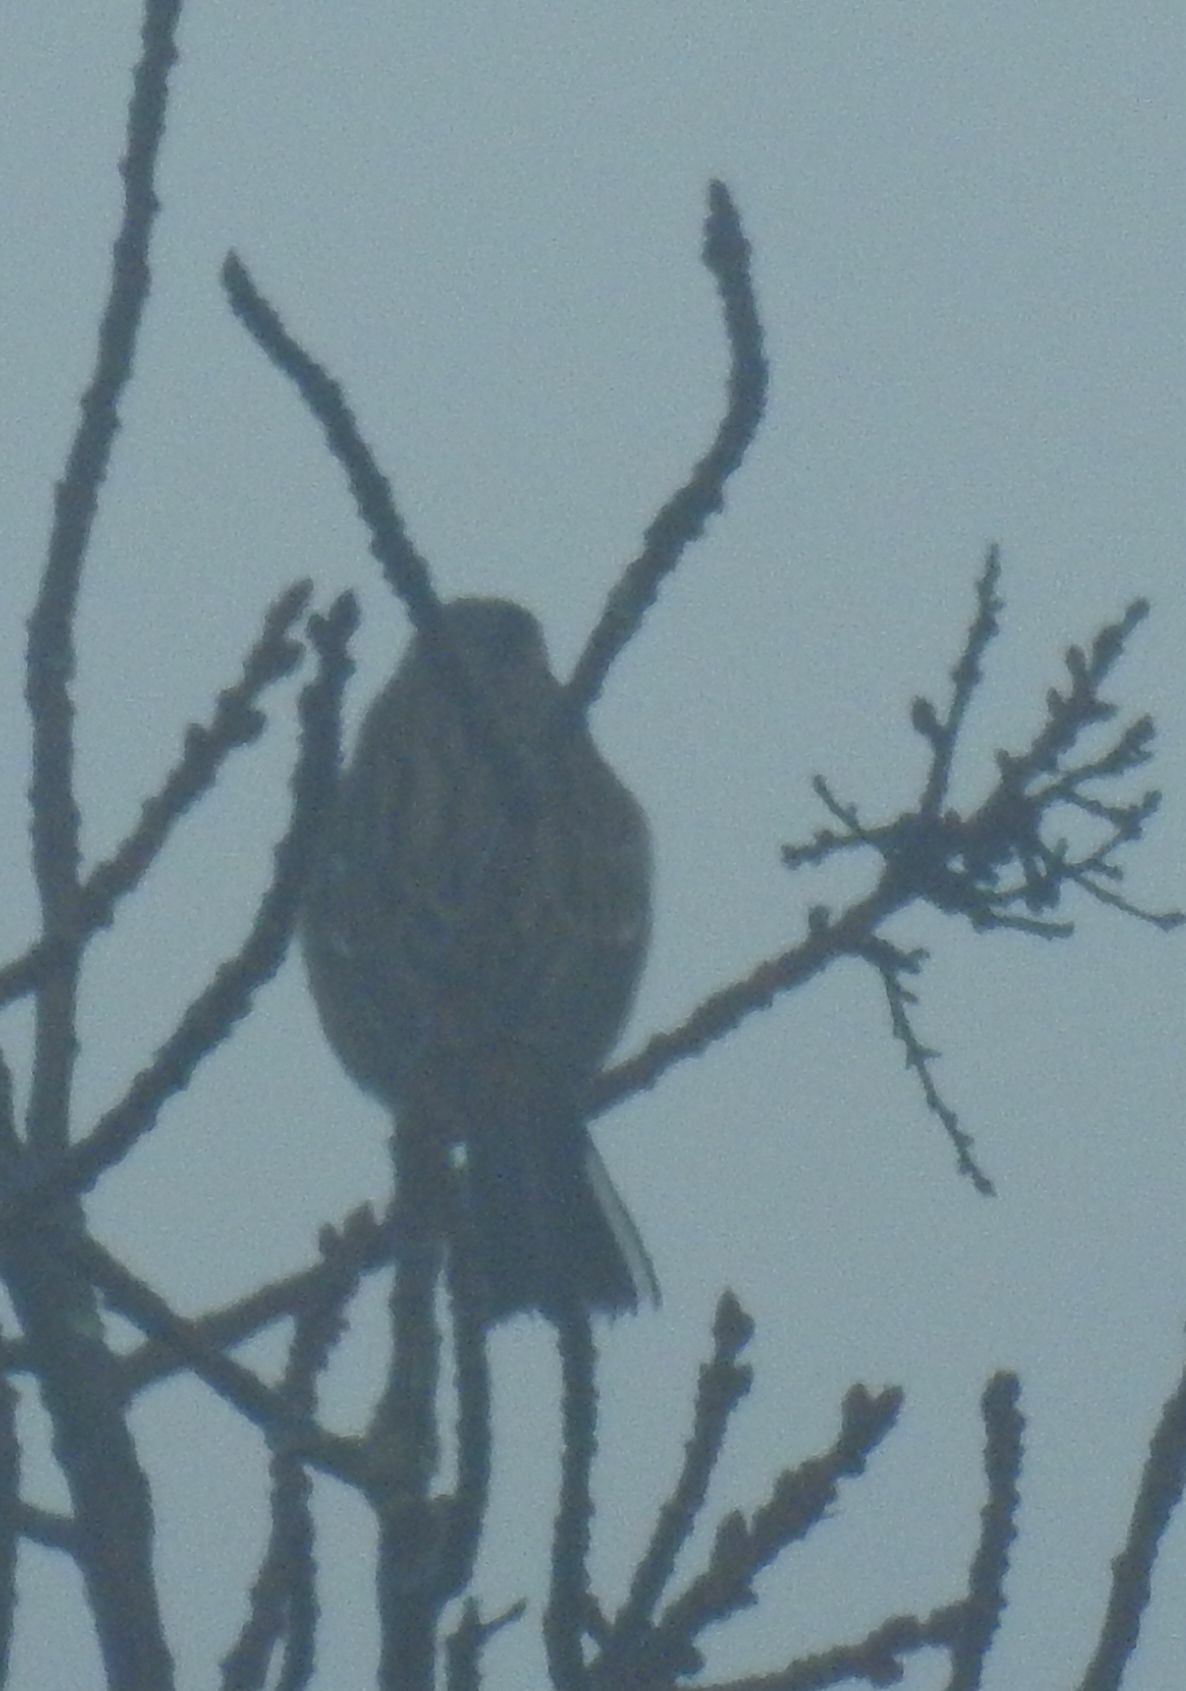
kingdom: Animalia
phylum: Chordata
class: Aves
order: Passeriformes
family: Emberizidae
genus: Emberiza
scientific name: Emberiza cia
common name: Rock bunting
